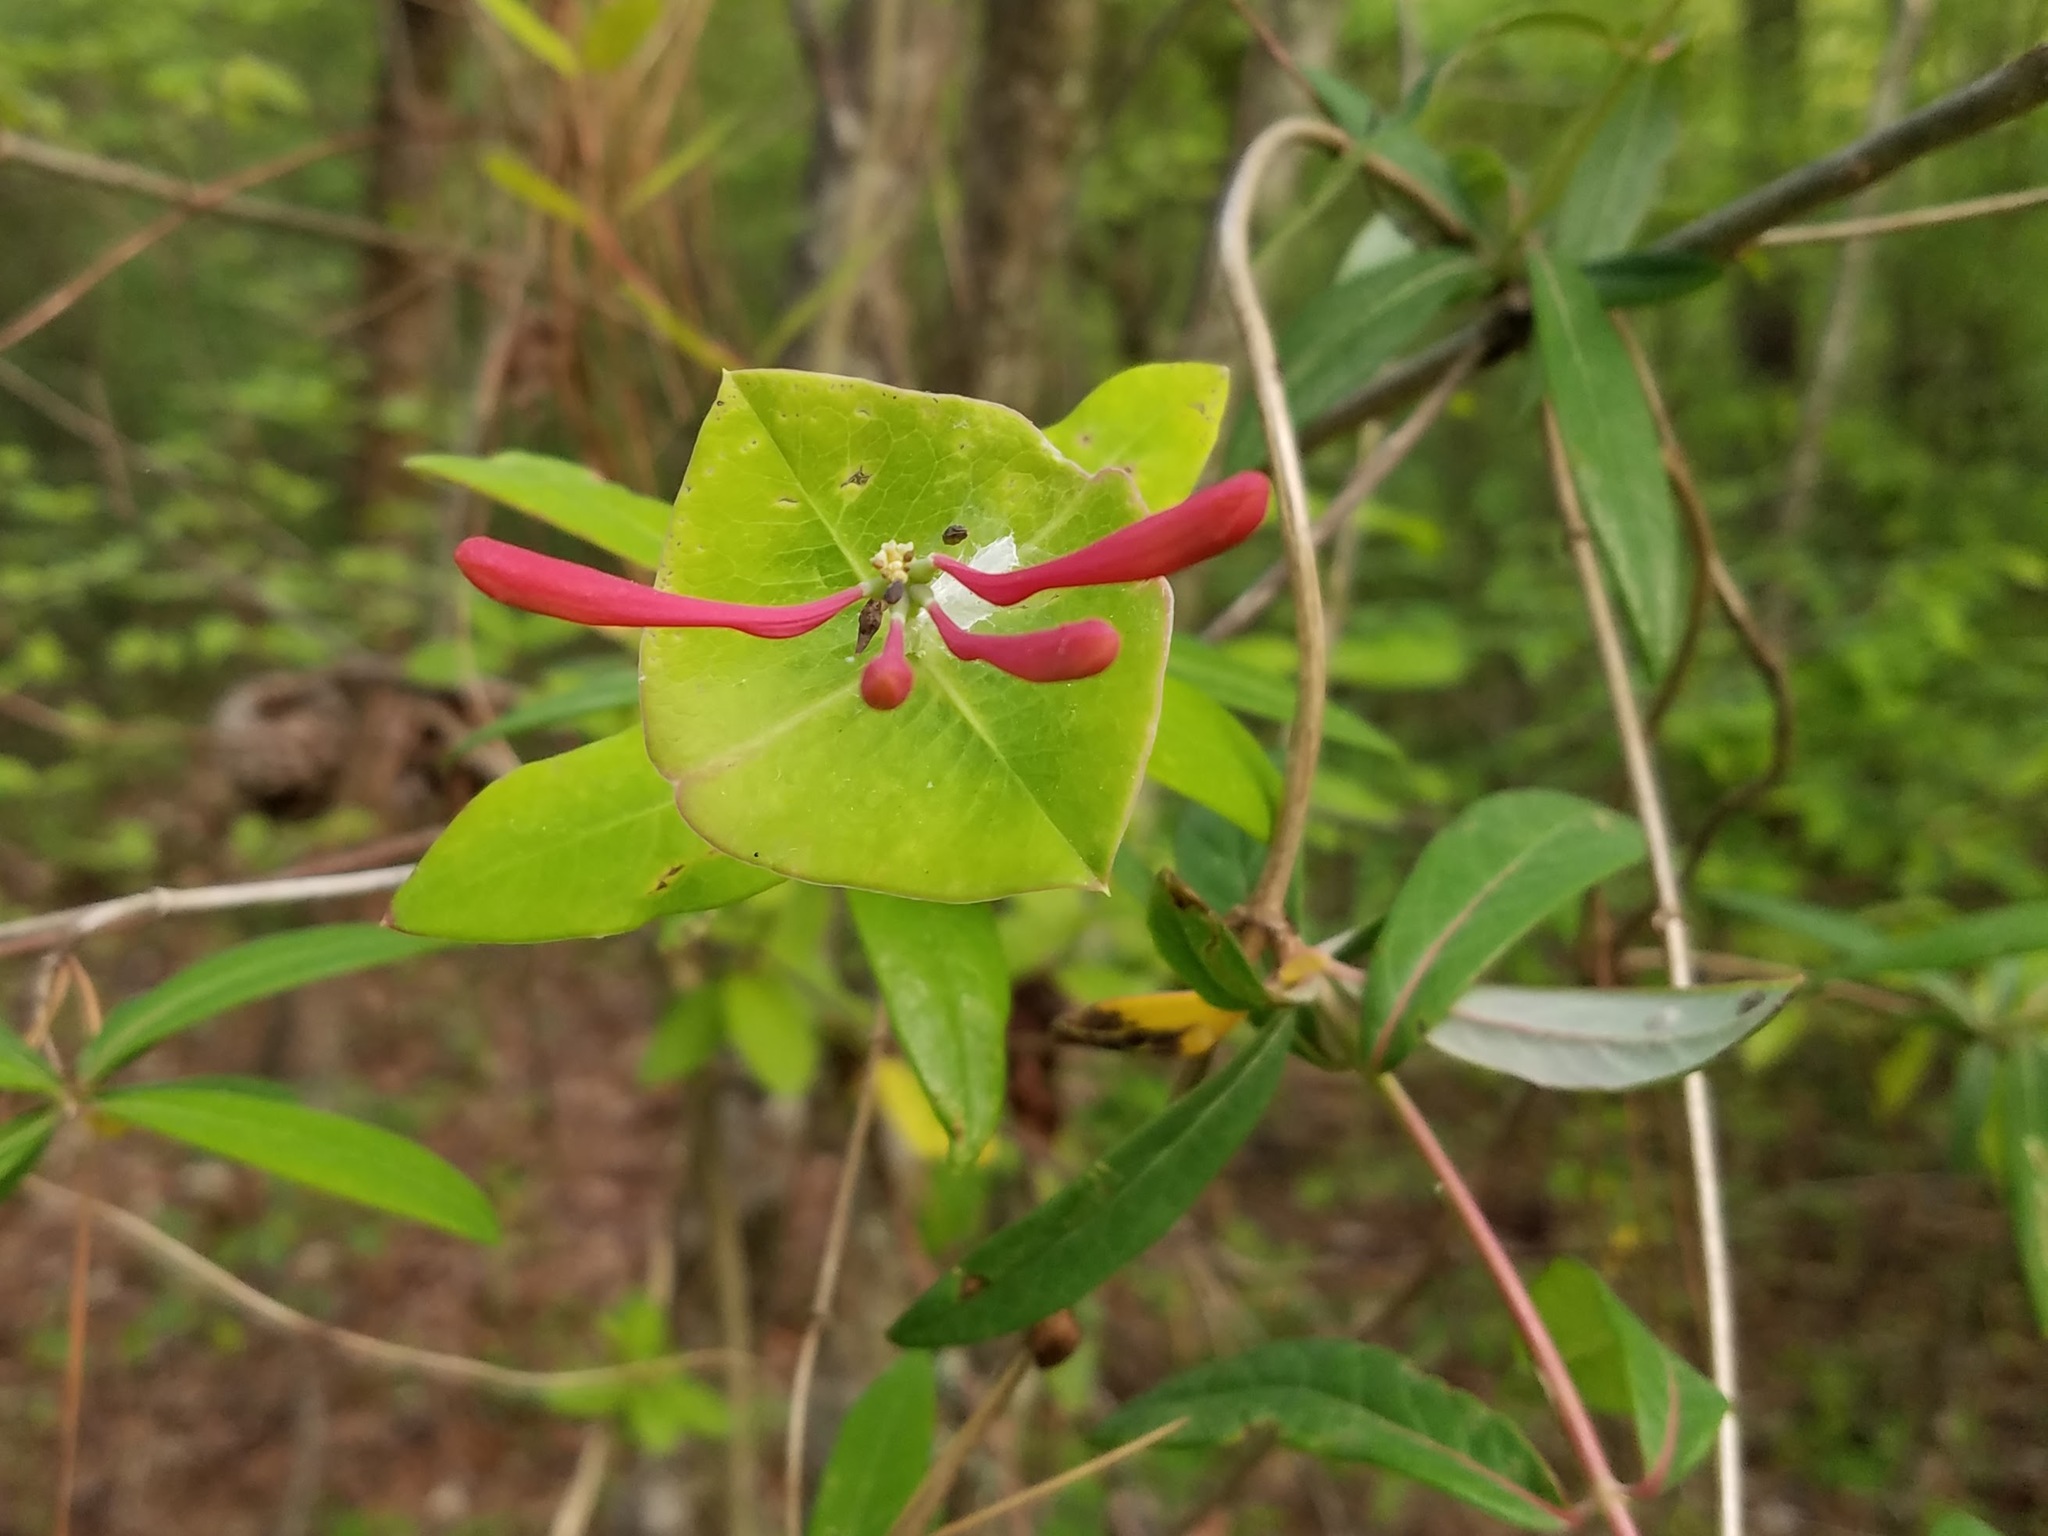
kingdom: Plantae
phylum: Tracheophyta
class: Magnoliopsida
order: Dipsacales
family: Caprifoliaceae
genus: Lonicera
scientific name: Lonicera sempervirens
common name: Coral honeysuckle
